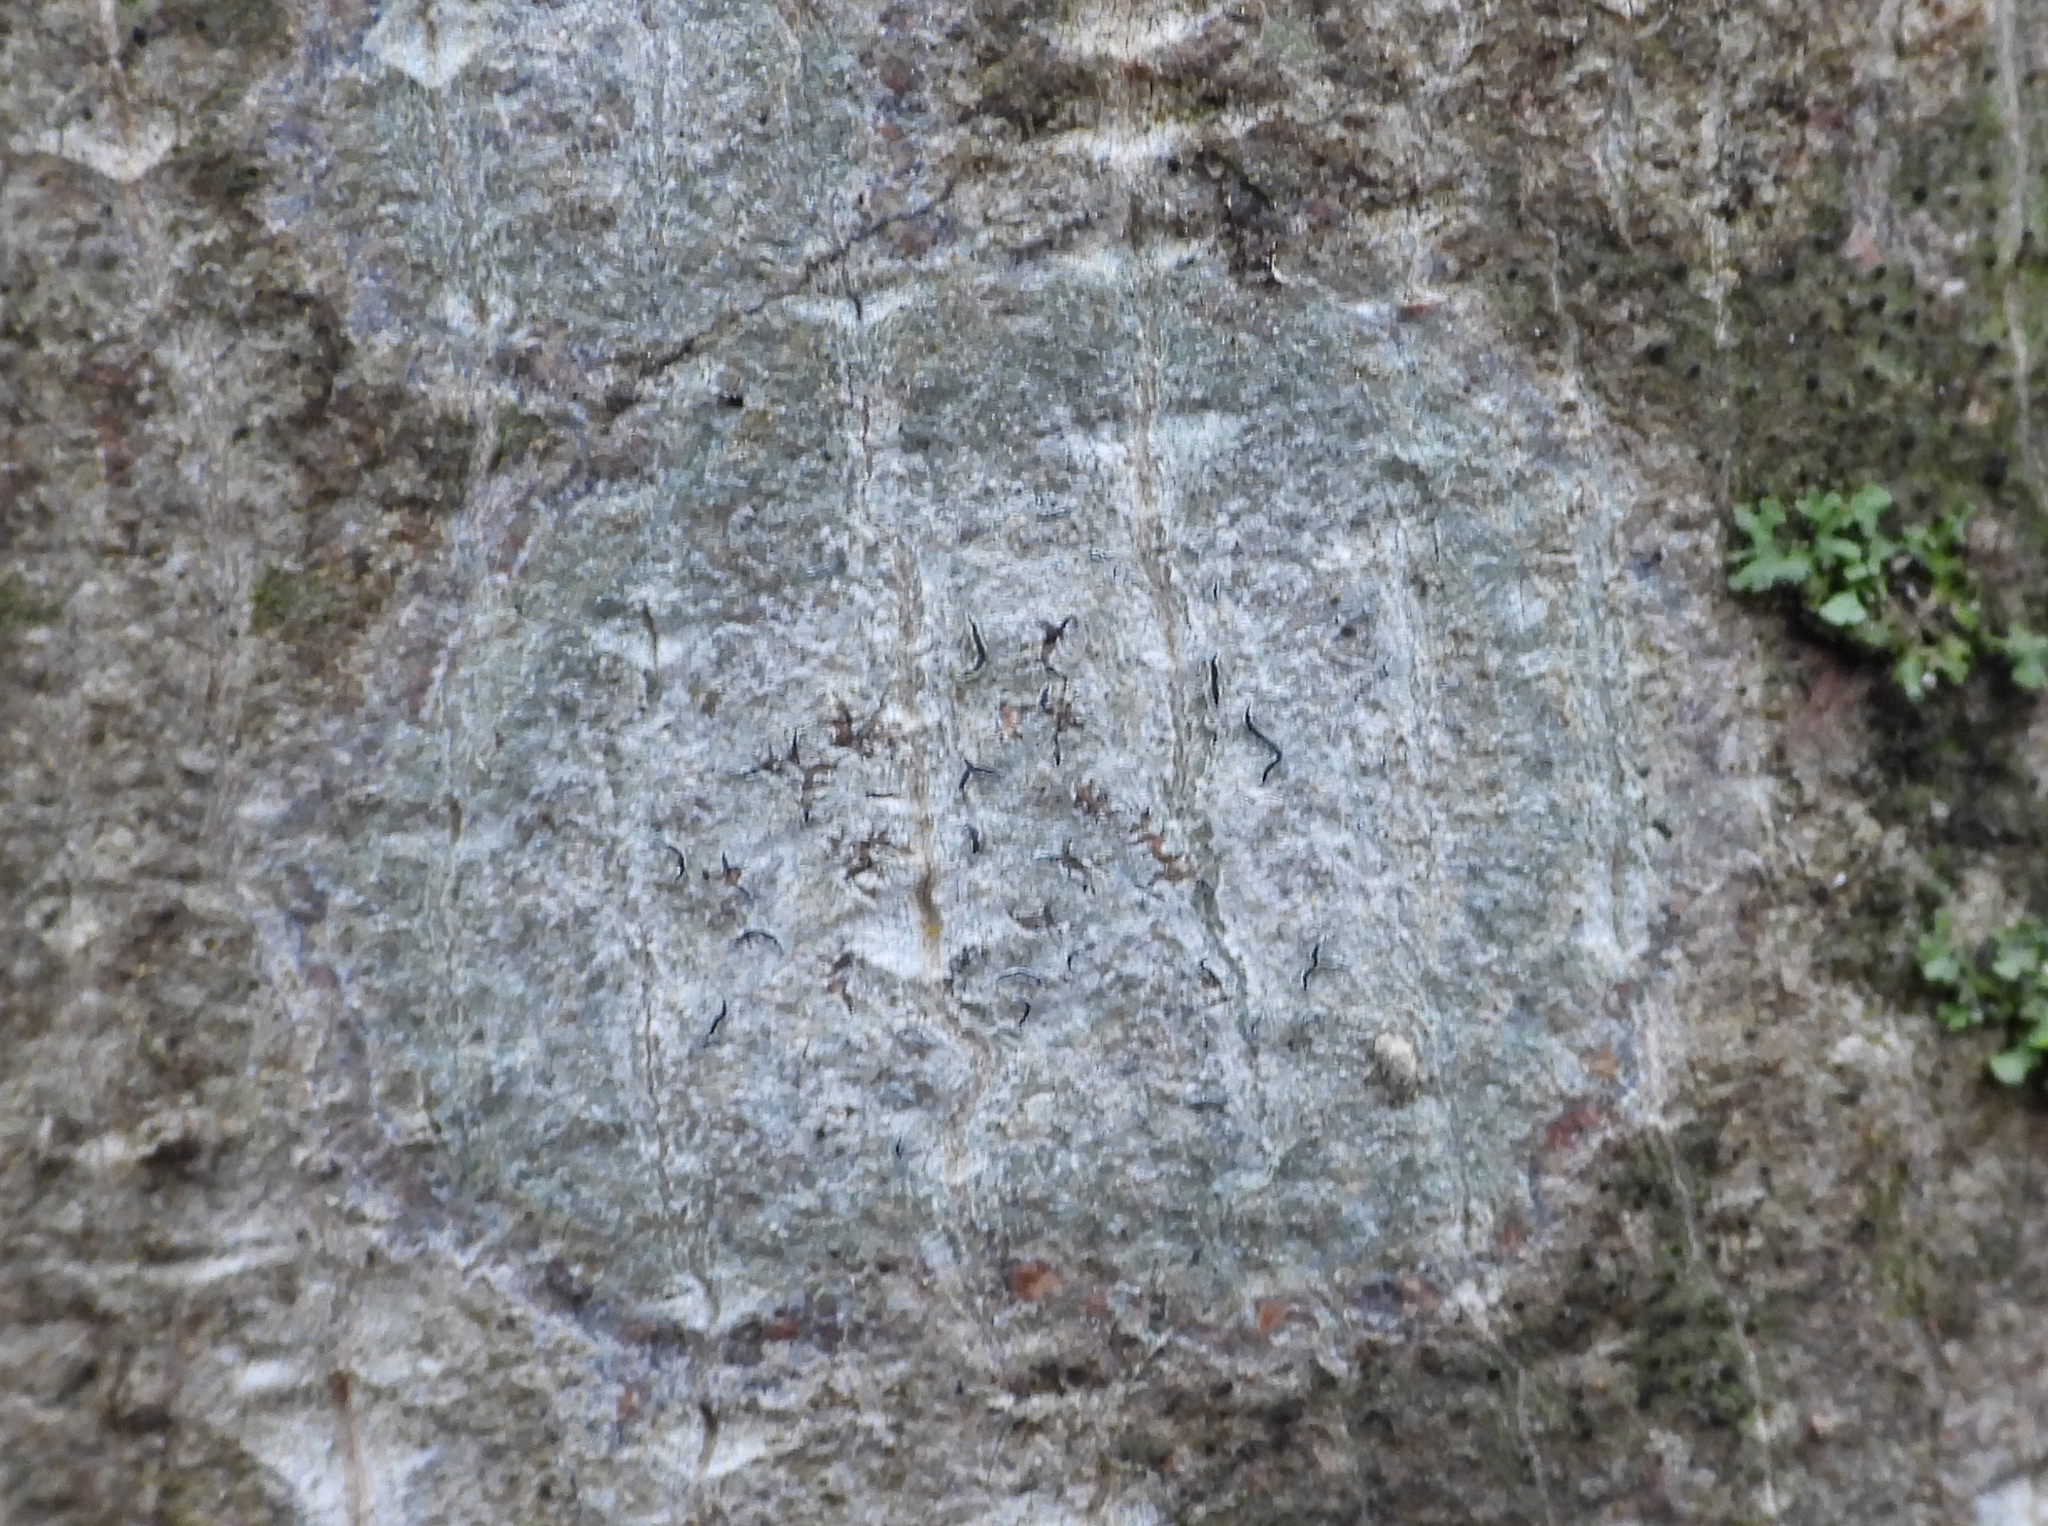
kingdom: Fungi
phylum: Ascomycota
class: Lecanoromycetes
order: Ostropales
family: Graphidaceae
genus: Graphis
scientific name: Graphis scripta
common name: Script lichen
